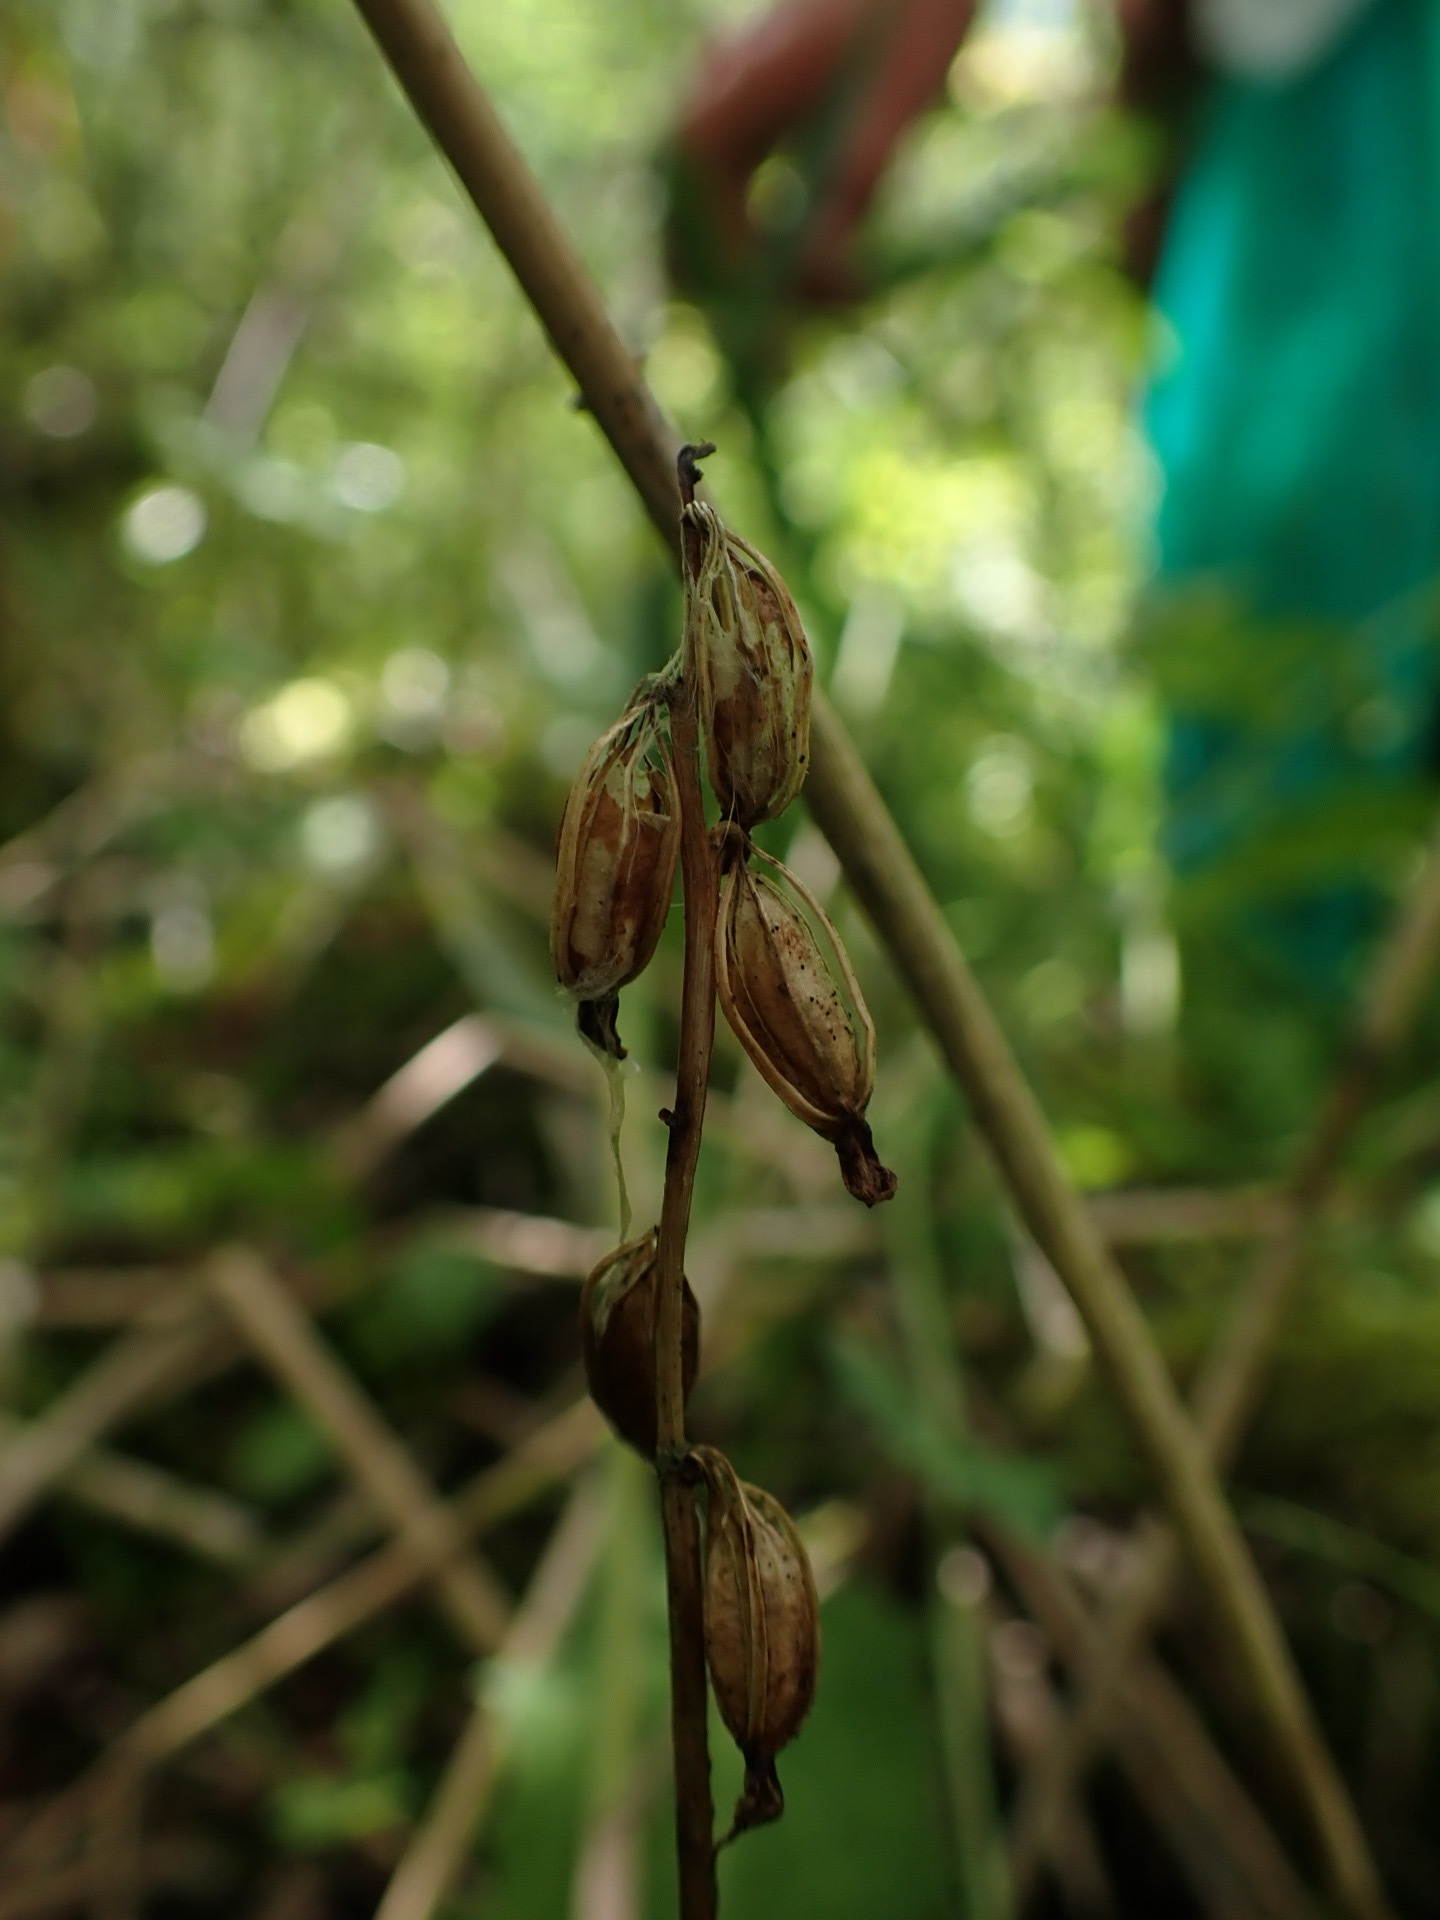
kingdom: Plantae
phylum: Tracheophyta
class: Liliopsida
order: Asparagales
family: Orchidaceae
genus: Corallorhiza
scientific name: Corallorhiza trifida
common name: Yellow coralroot
